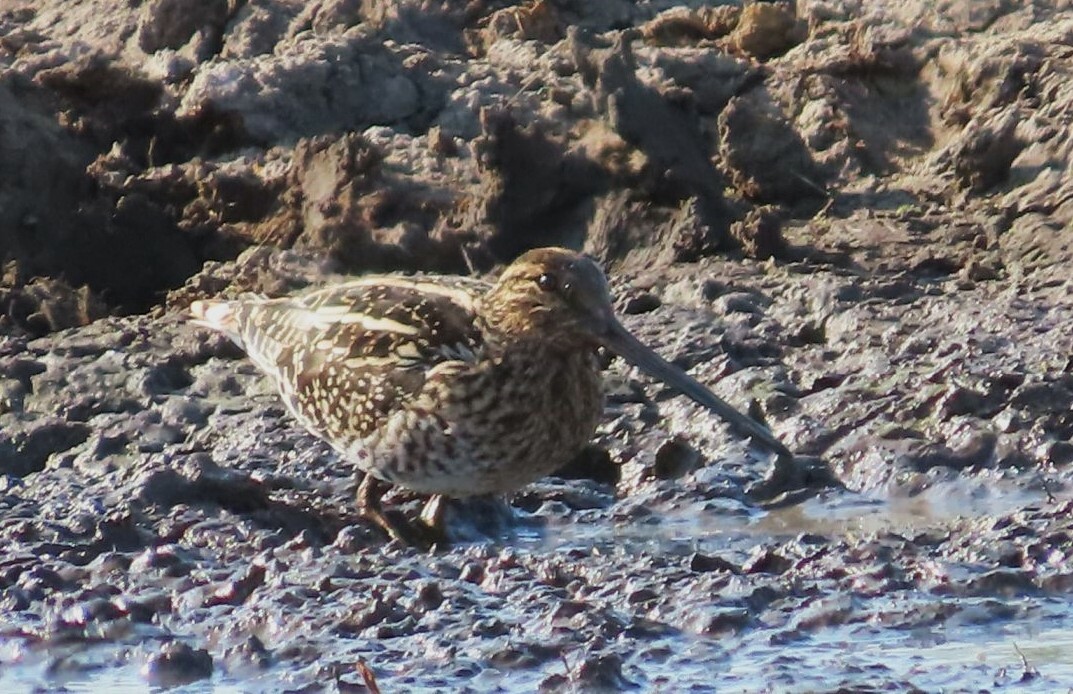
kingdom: Animalia
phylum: Chordata
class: Aves
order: Charadriiformes
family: Scolopacidae
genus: Gallinago
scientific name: Gallinago nigripennis
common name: African snipe
